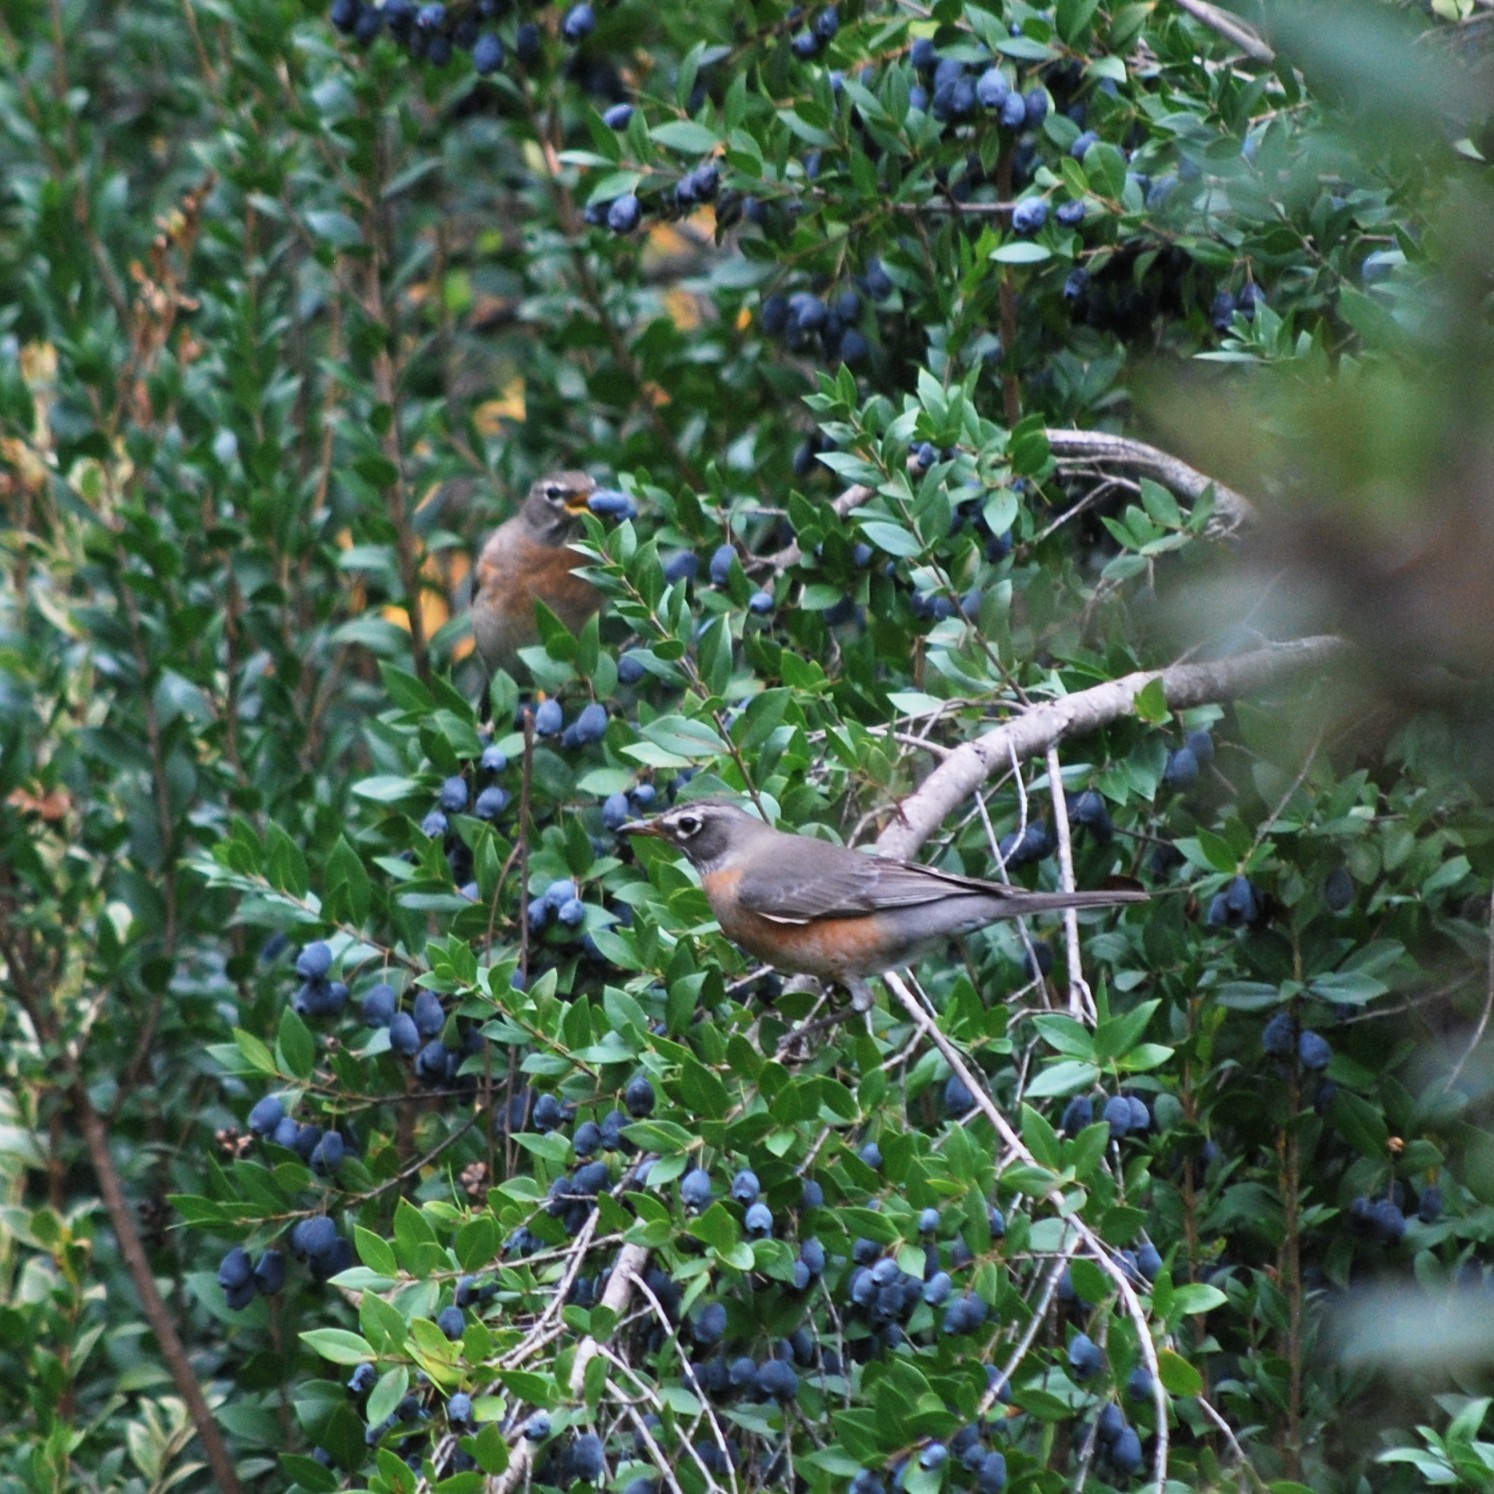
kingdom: Animalia
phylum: Chordata
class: Aves
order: Passeriformes
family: Turdidae
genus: Turdus
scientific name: Turdus migratorius
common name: American robin
